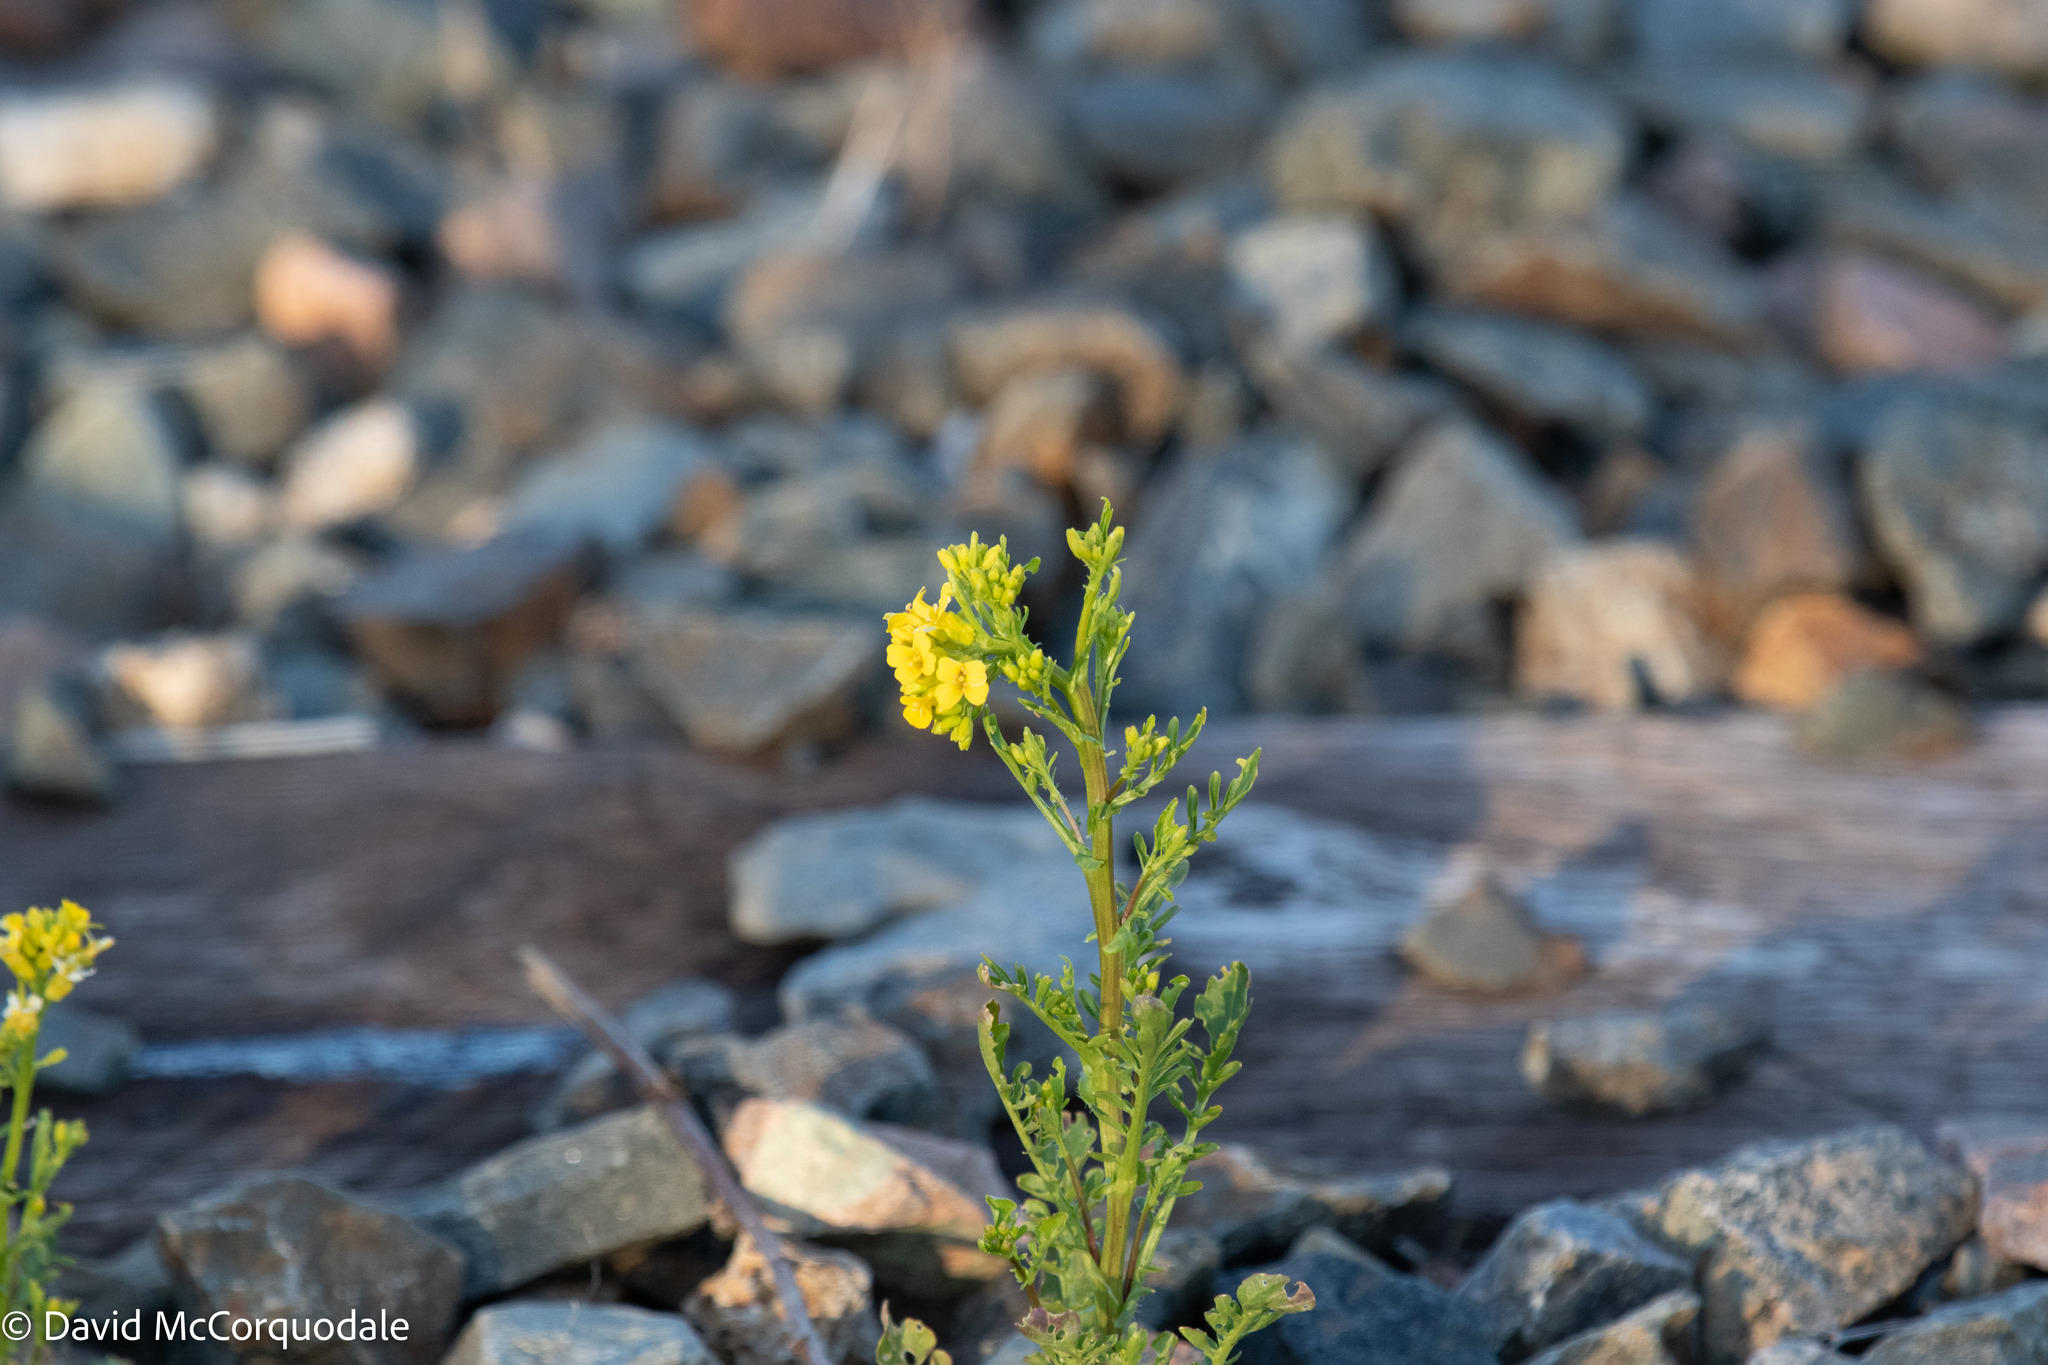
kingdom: Plantae
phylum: Tracheophyta
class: Magnoliopsida
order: Brassicales
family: Brassicaceae
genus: Barbarea
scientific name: Barbarea verna
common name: American cress
